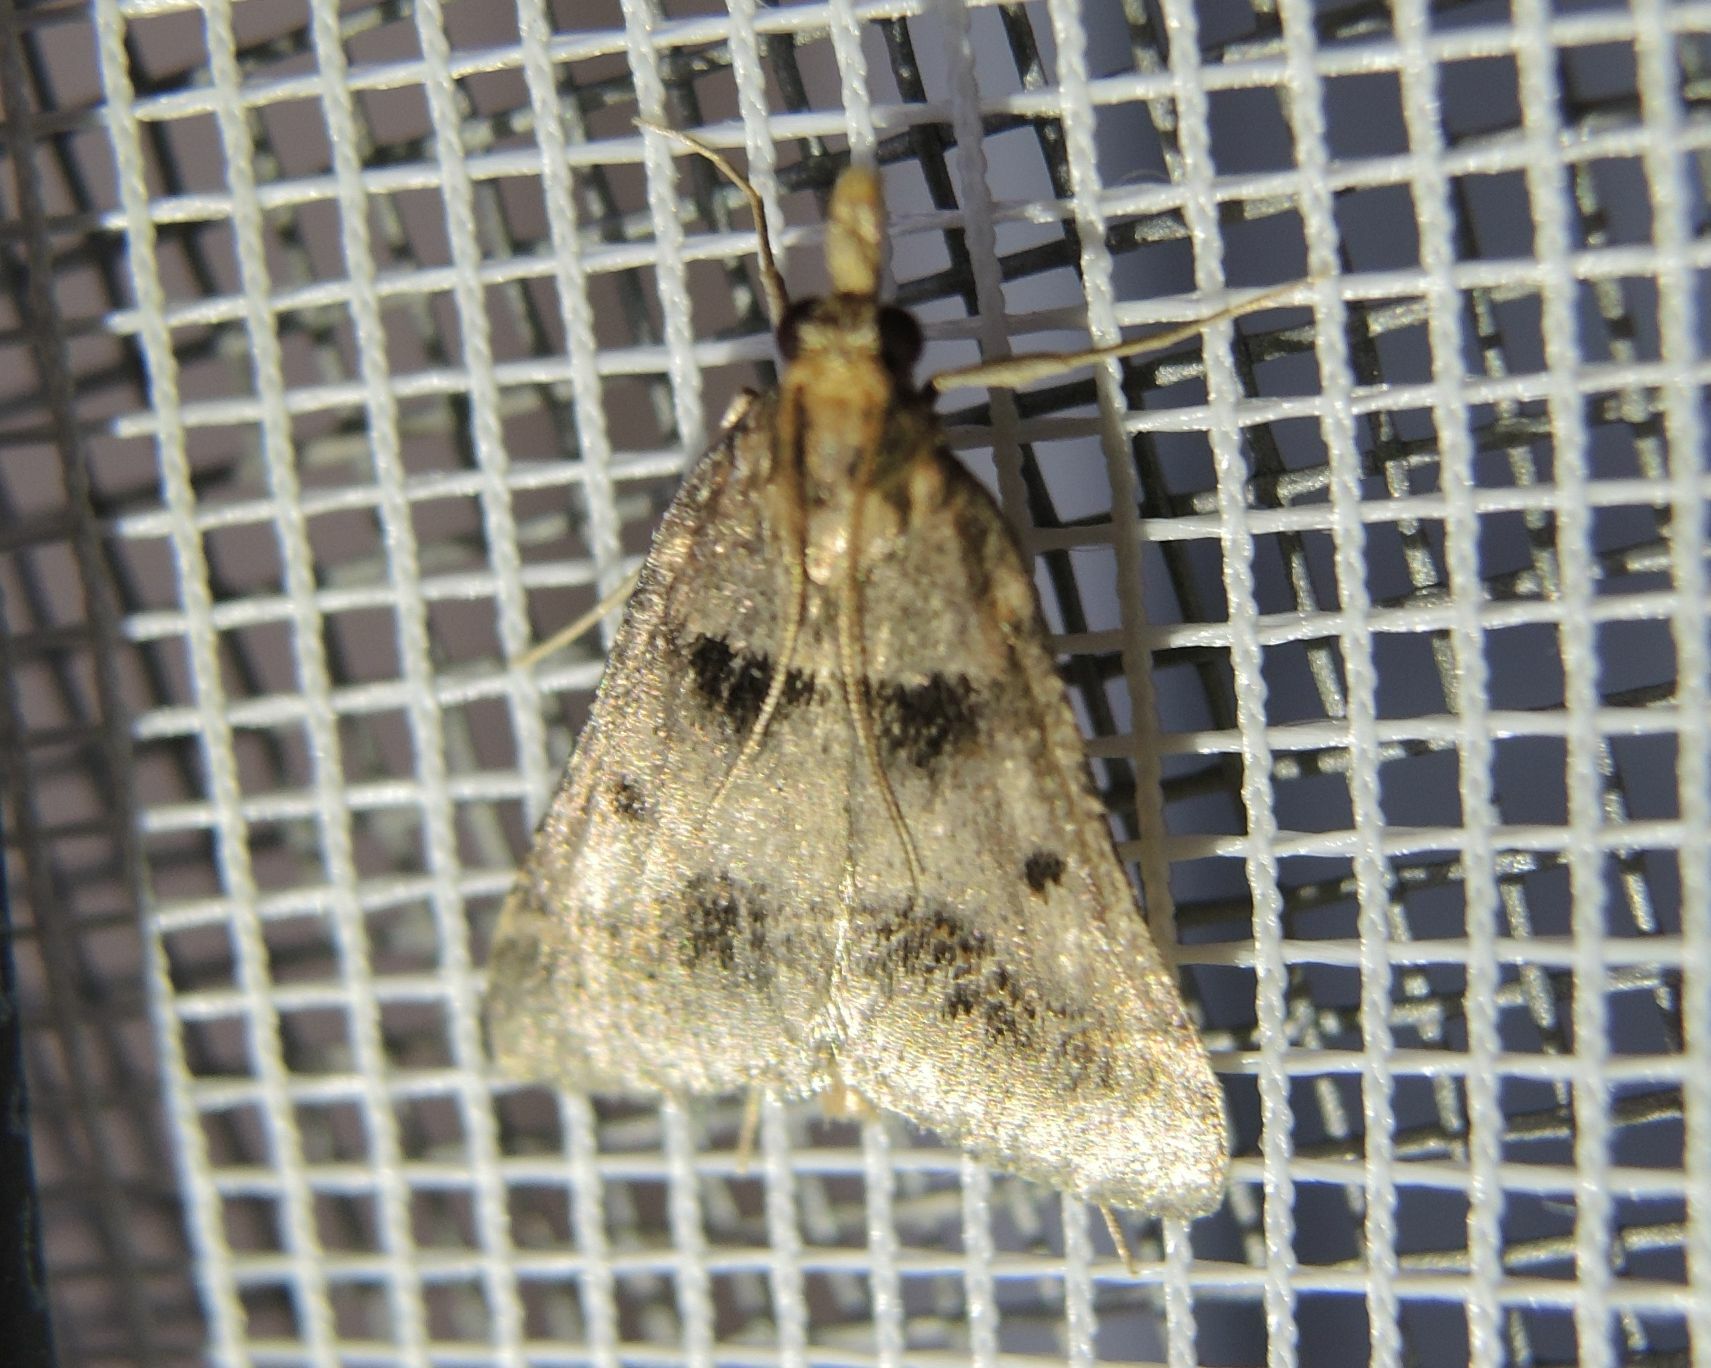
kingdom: Animalia
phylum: Arthropoda
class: Insecta
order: Lepidoptera
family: Pyralidae
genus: Stemmatophora
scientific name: Stemmatophora brunnealis
